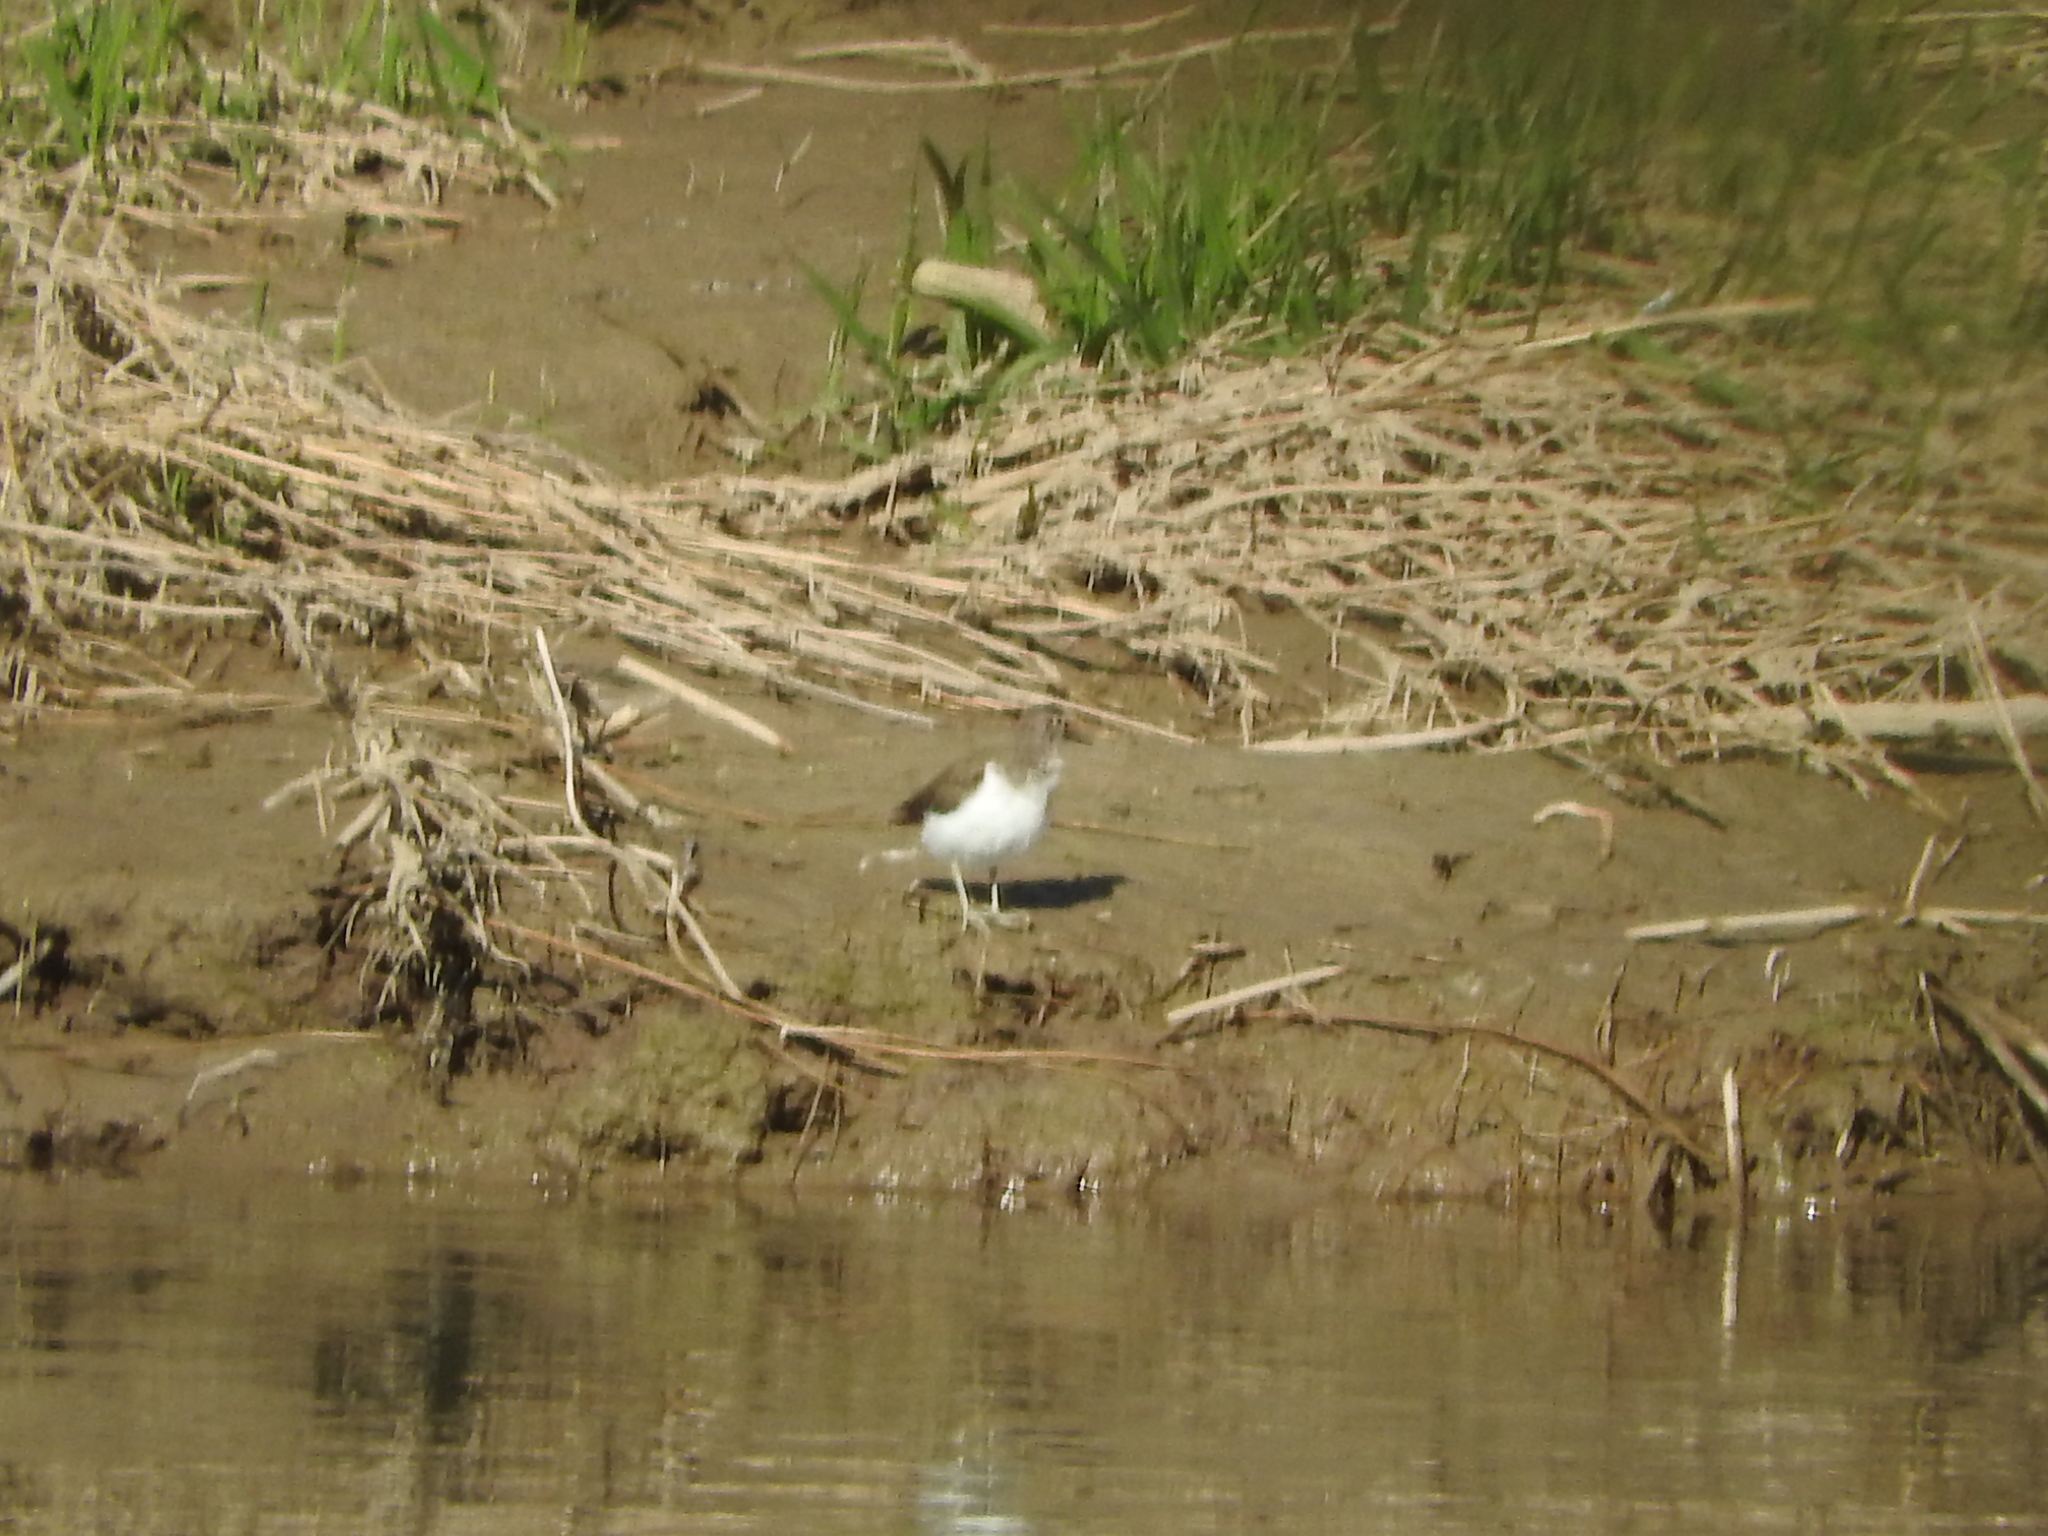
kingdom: Animalia
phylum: Chordata
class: Aves
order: Charadriiformes
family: Scolopacidae
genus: Actitis
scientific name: Actitis hypoleucos
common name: Common sandpiper
